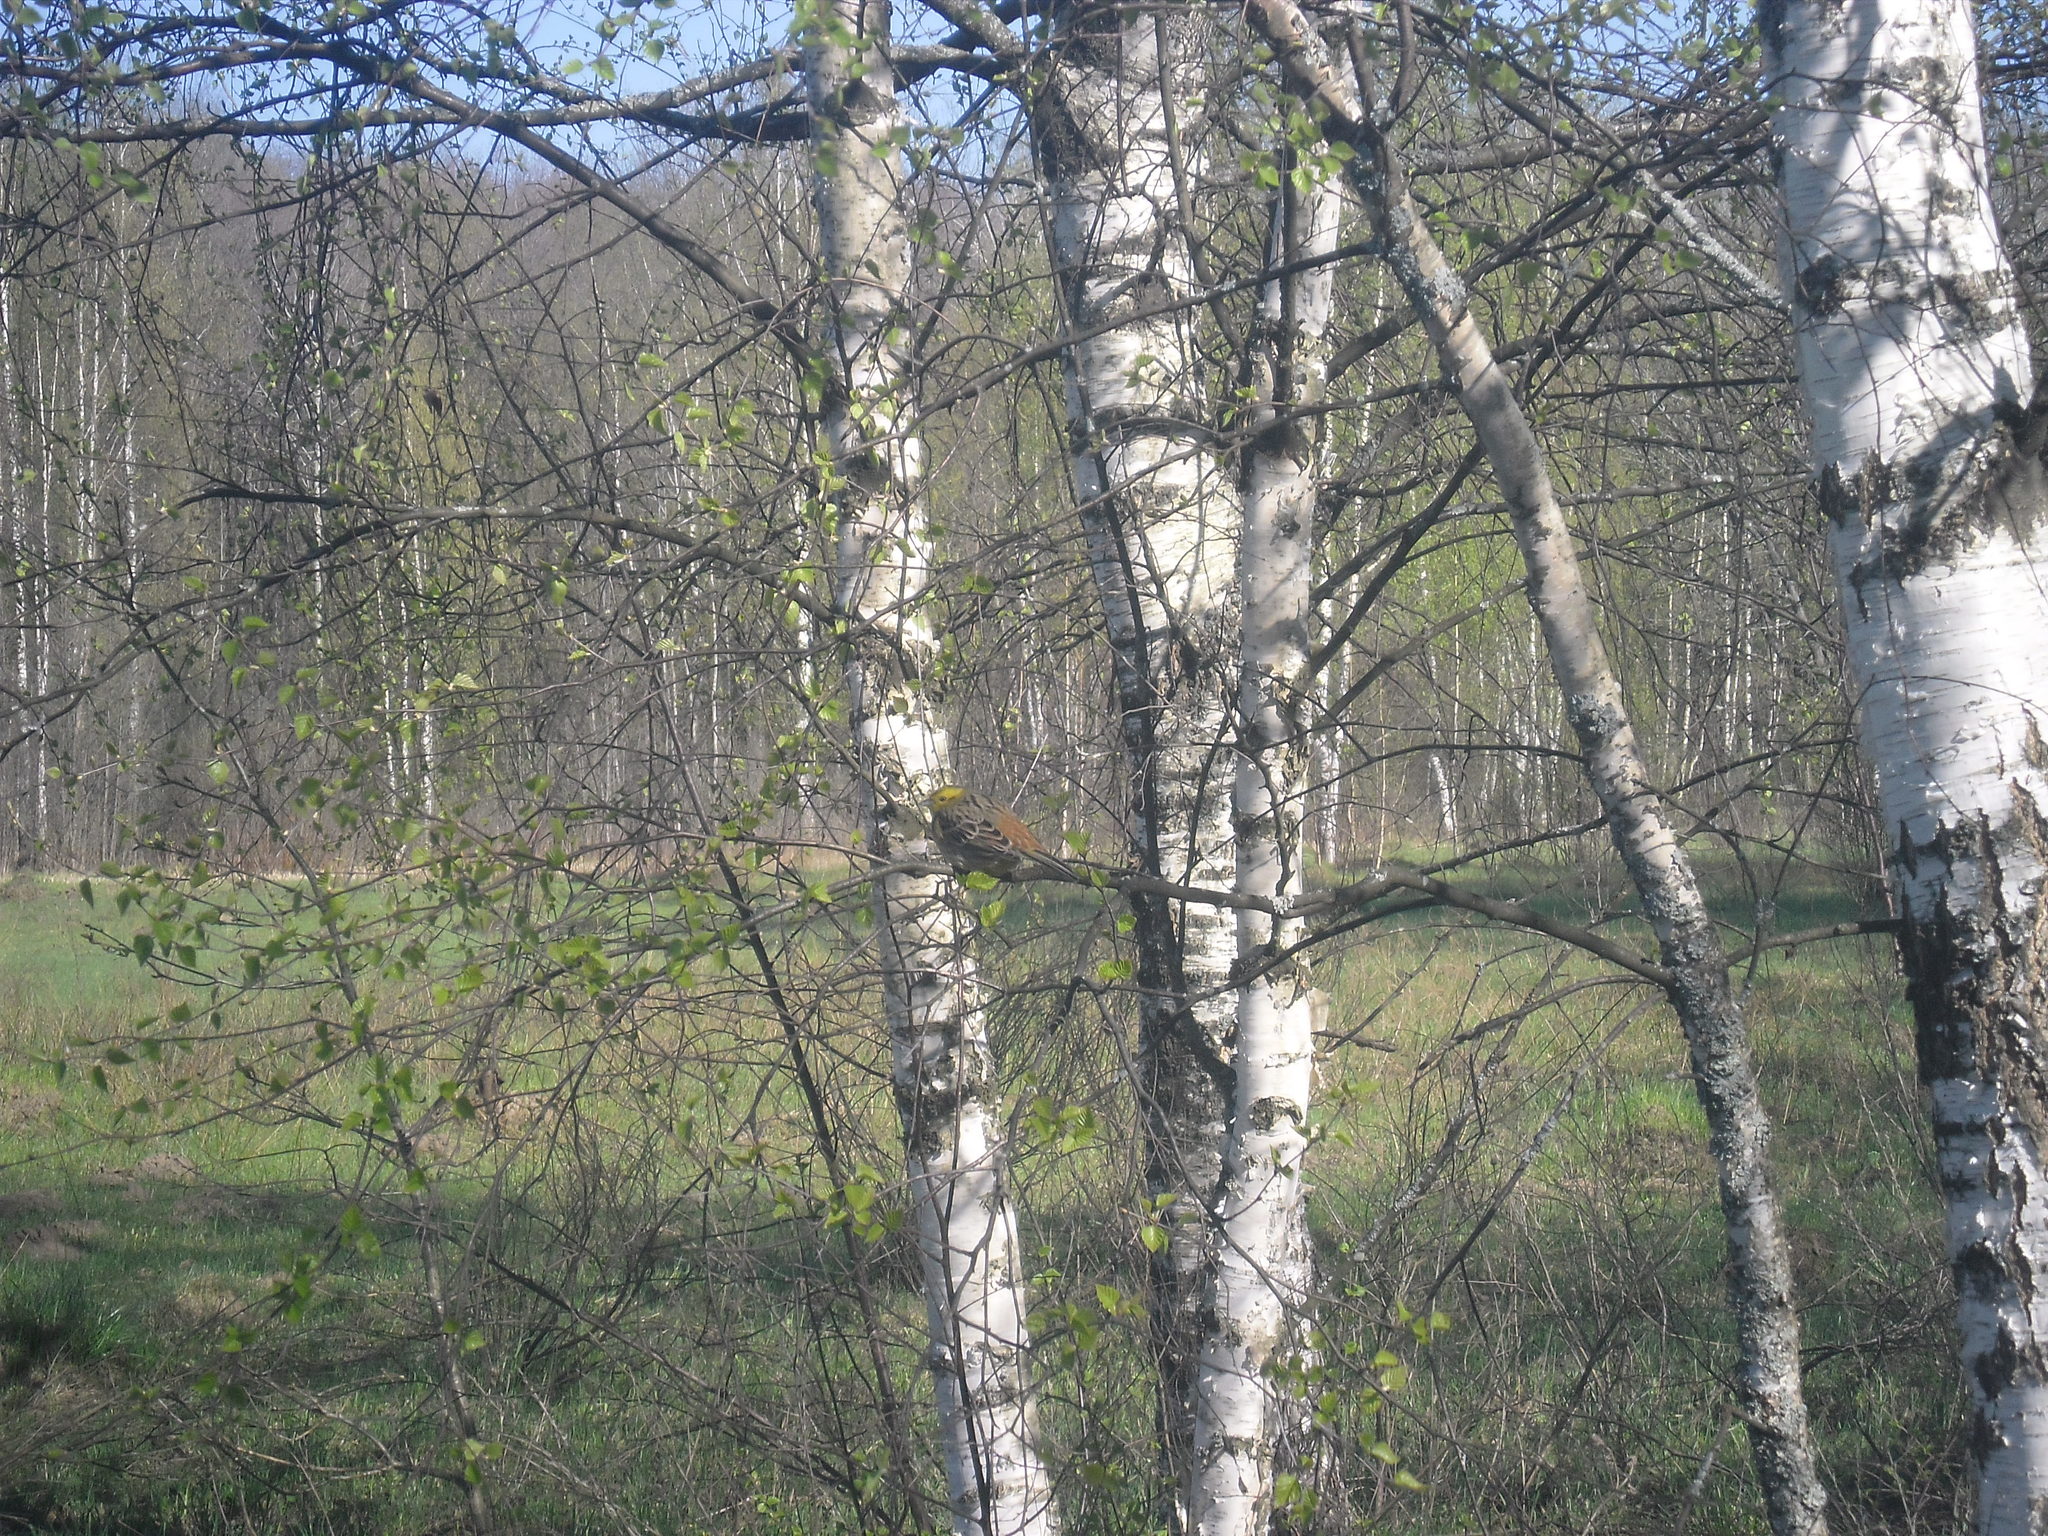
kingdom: Animalia
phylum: Chordata
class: Aves
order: Passeriformes
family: Emberizidae
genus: Emberiza
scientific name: Emberiza citrinella
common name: Yellowhammer
